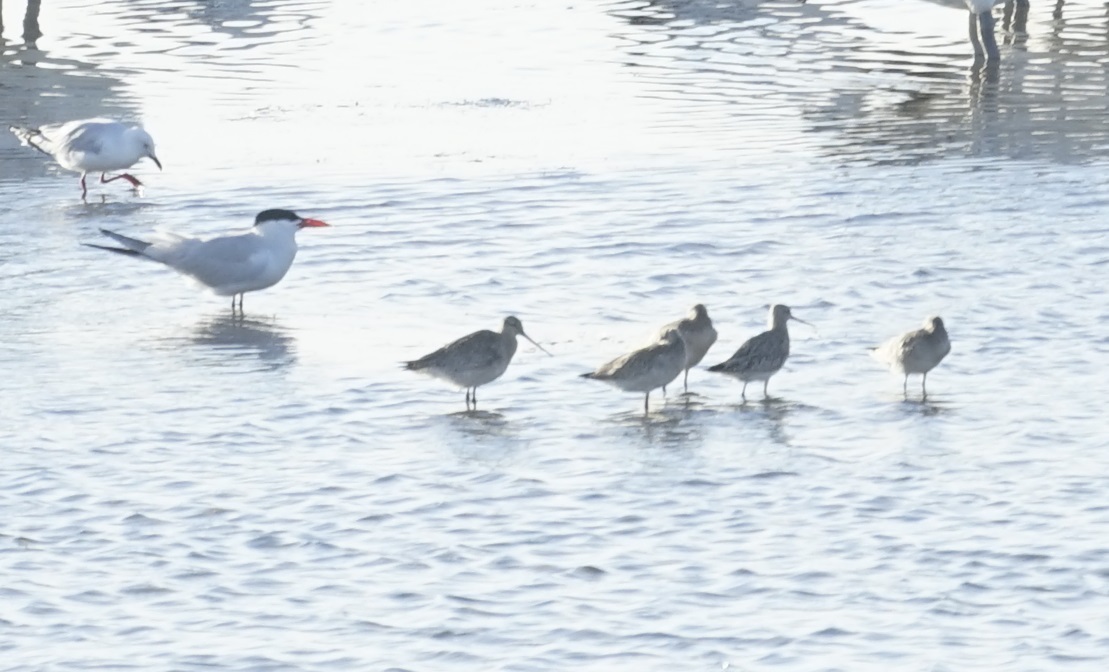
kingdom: Animalia
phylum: Chordata
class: Aves
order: Charadriiformes
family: Scolopacidae
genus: Limosa
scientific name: Limosa lapponica
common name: Bar-tailed godwit
